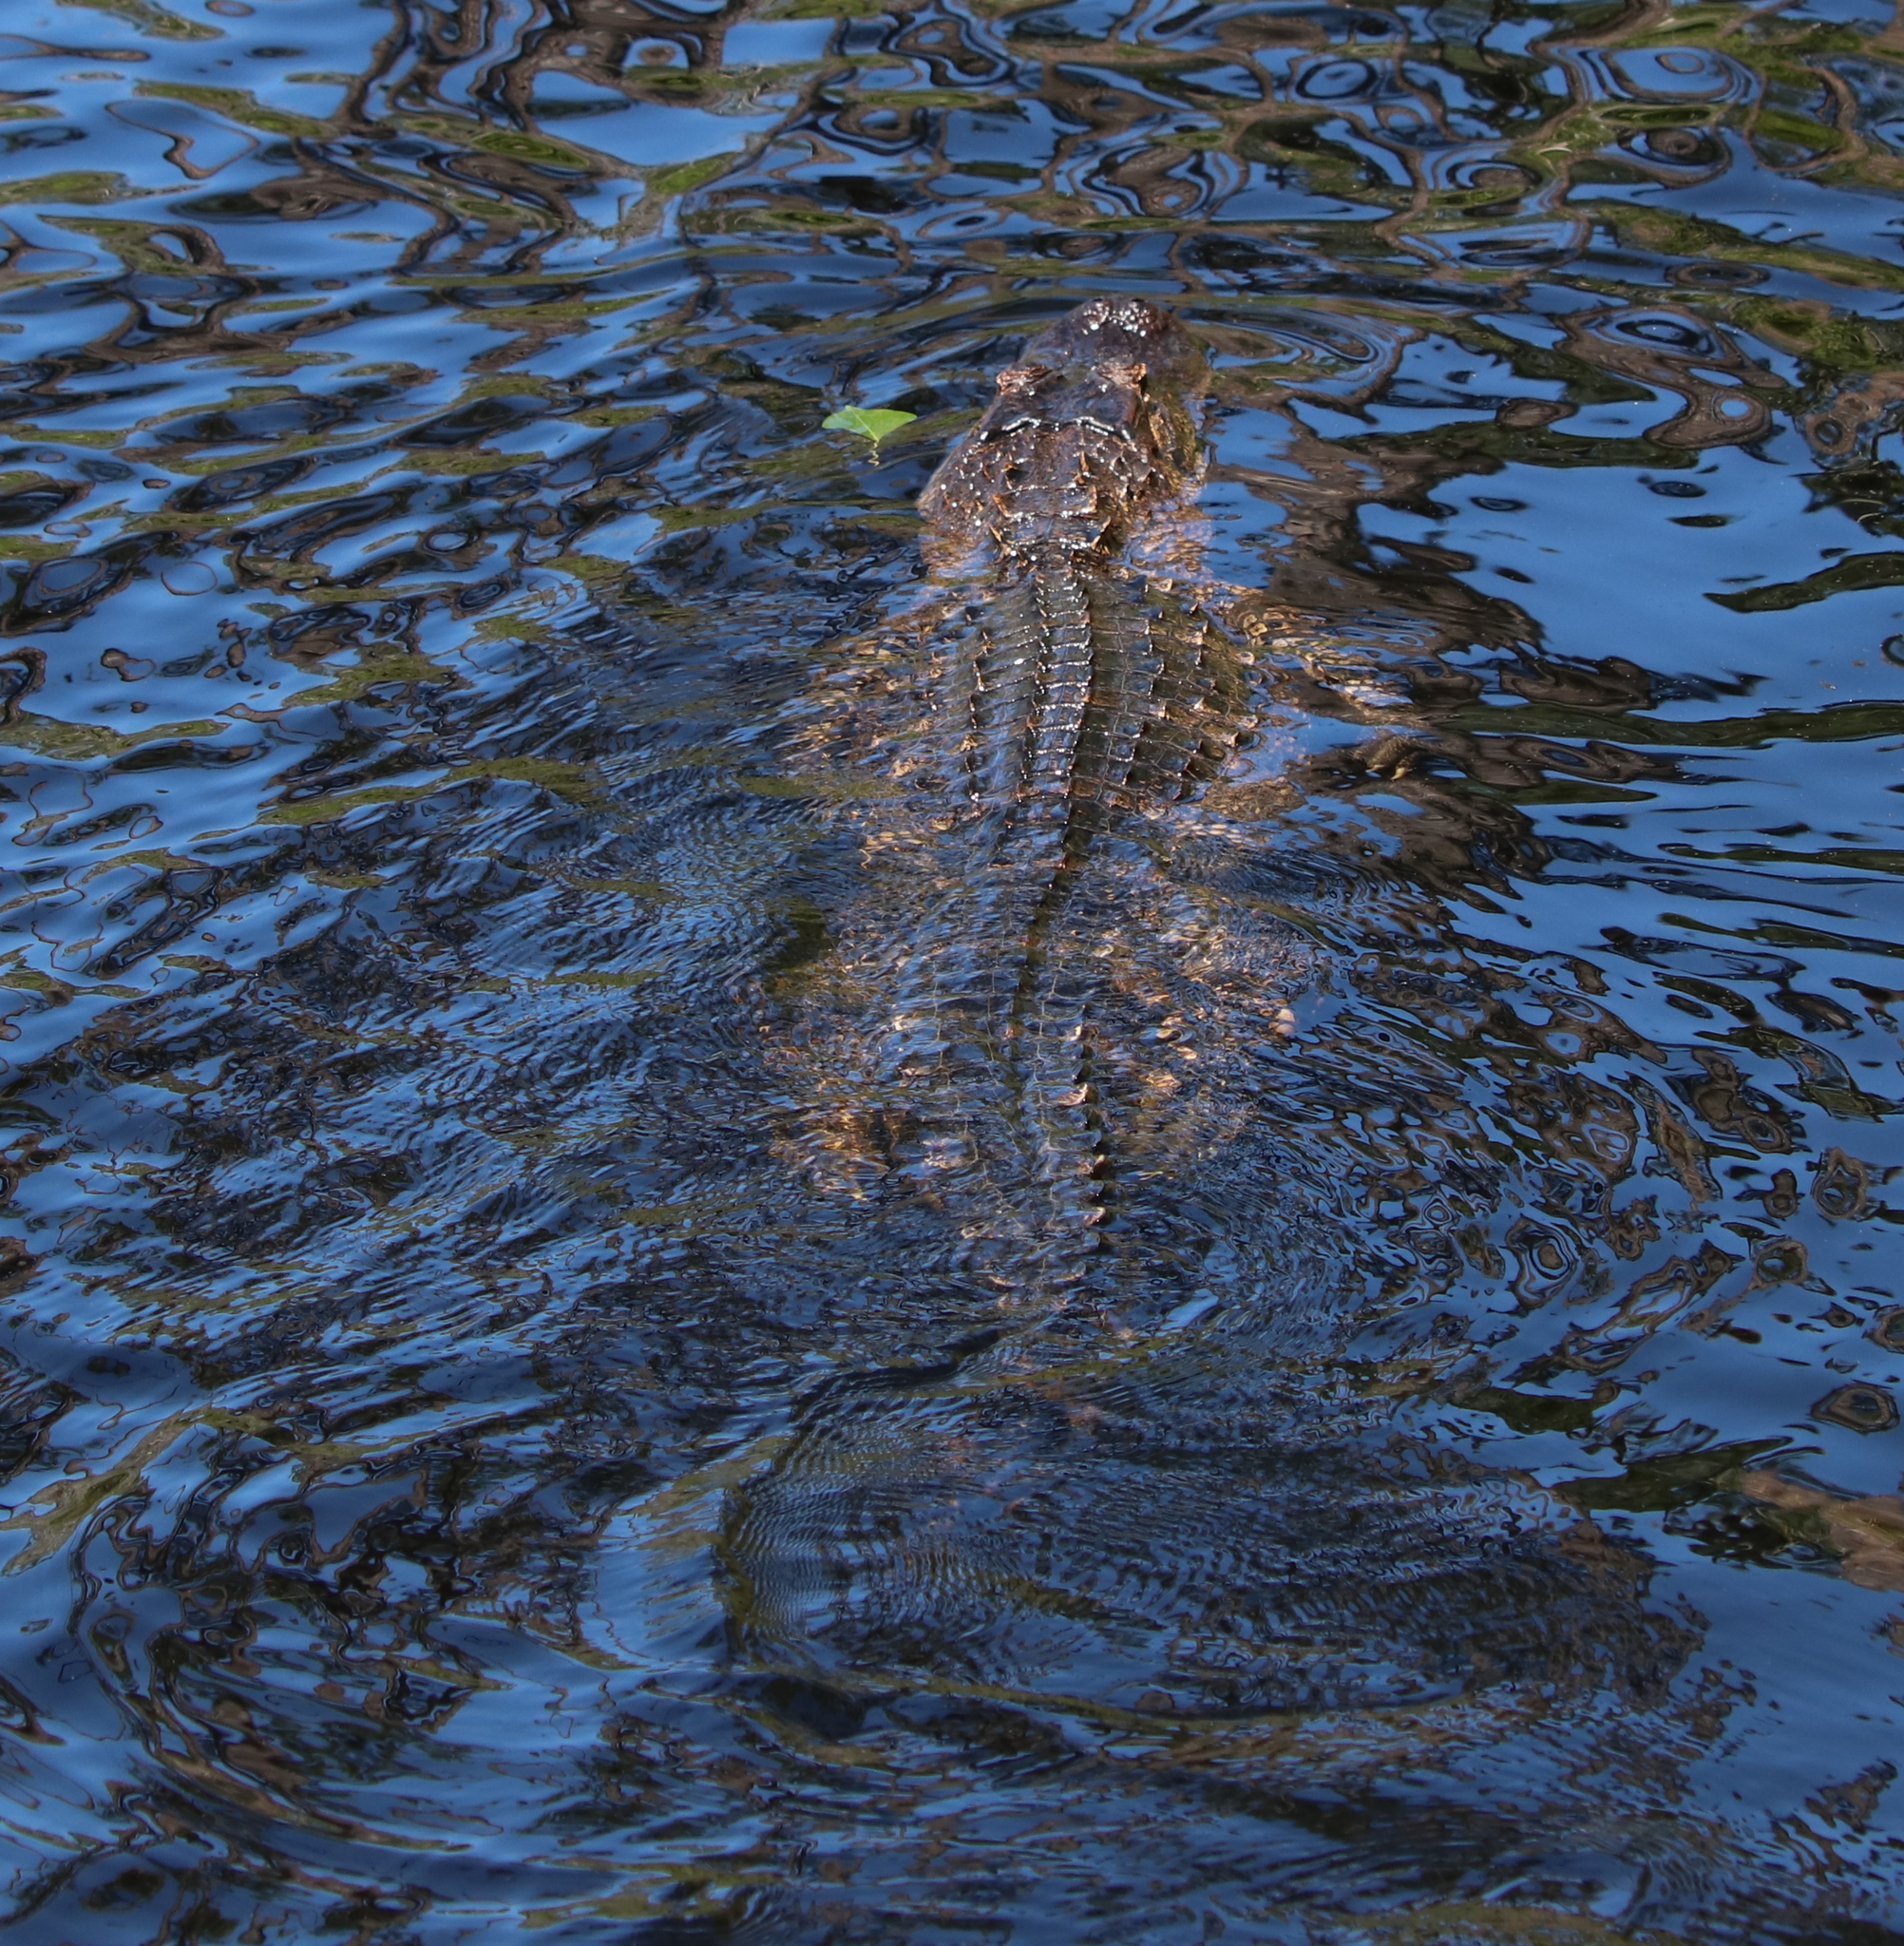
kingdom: Animalia
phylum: Chordata
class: Crocodylia
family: Alligatoridae
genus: Alligator
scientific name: Alligator mississippiensis
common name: American alligator
